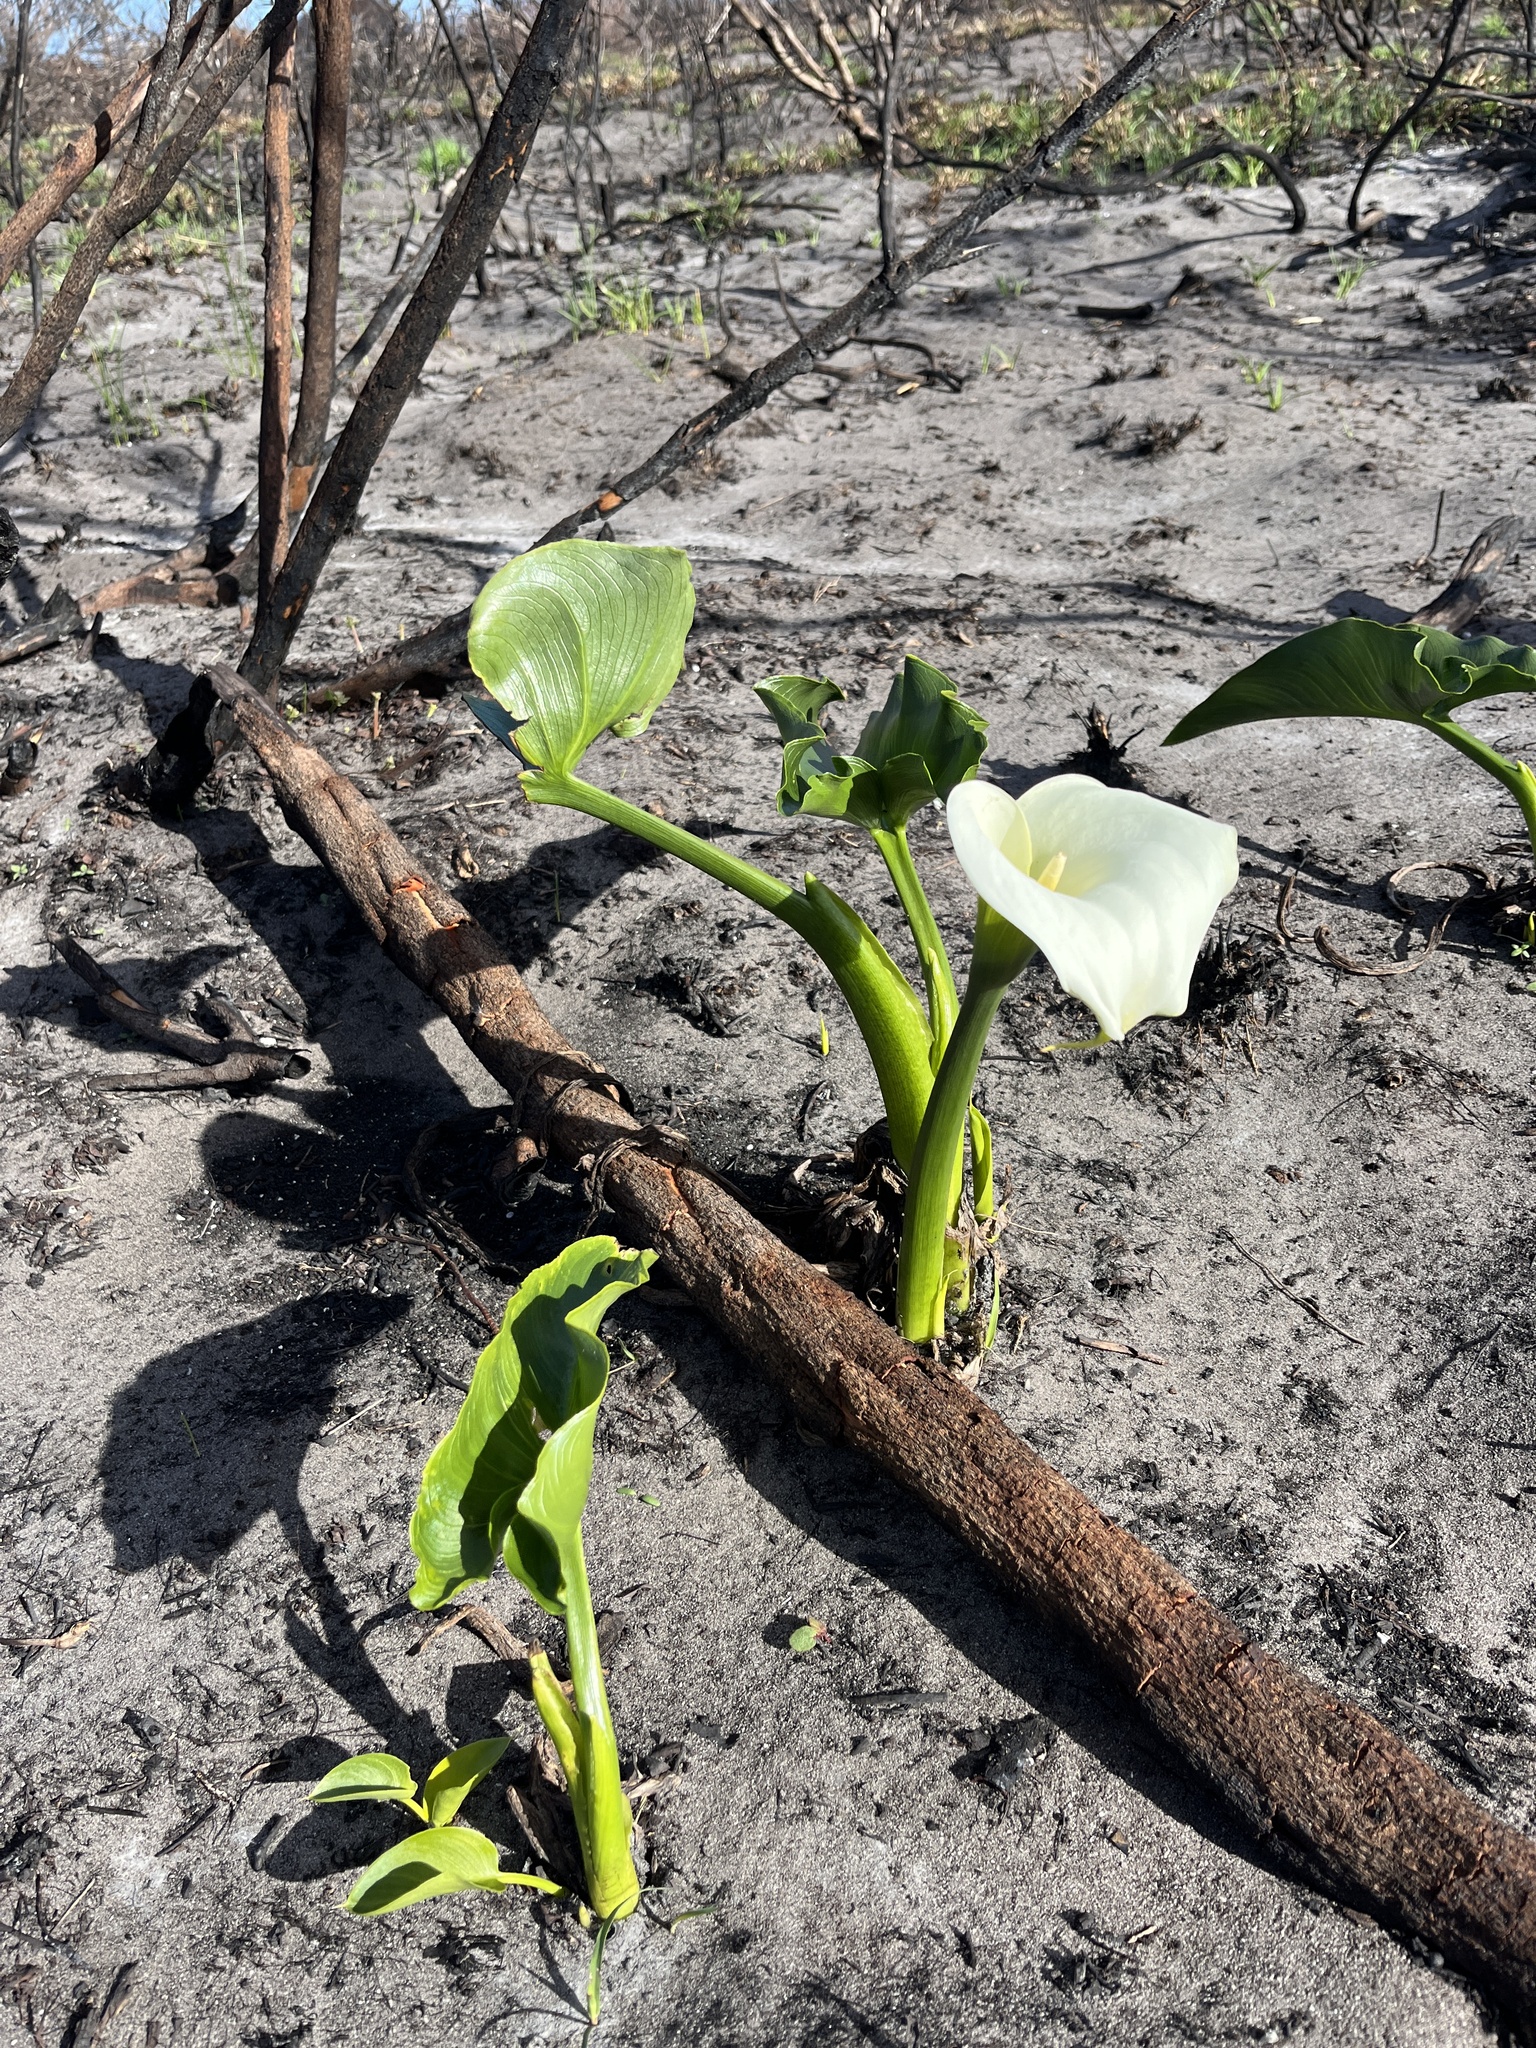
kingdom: Plantae
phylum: Tracheophyta
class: Liliopsida
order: Alismatales
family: Araceae
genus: Zantedeschia
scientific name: Zantedeschia aethiopica
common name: Altar-lily
